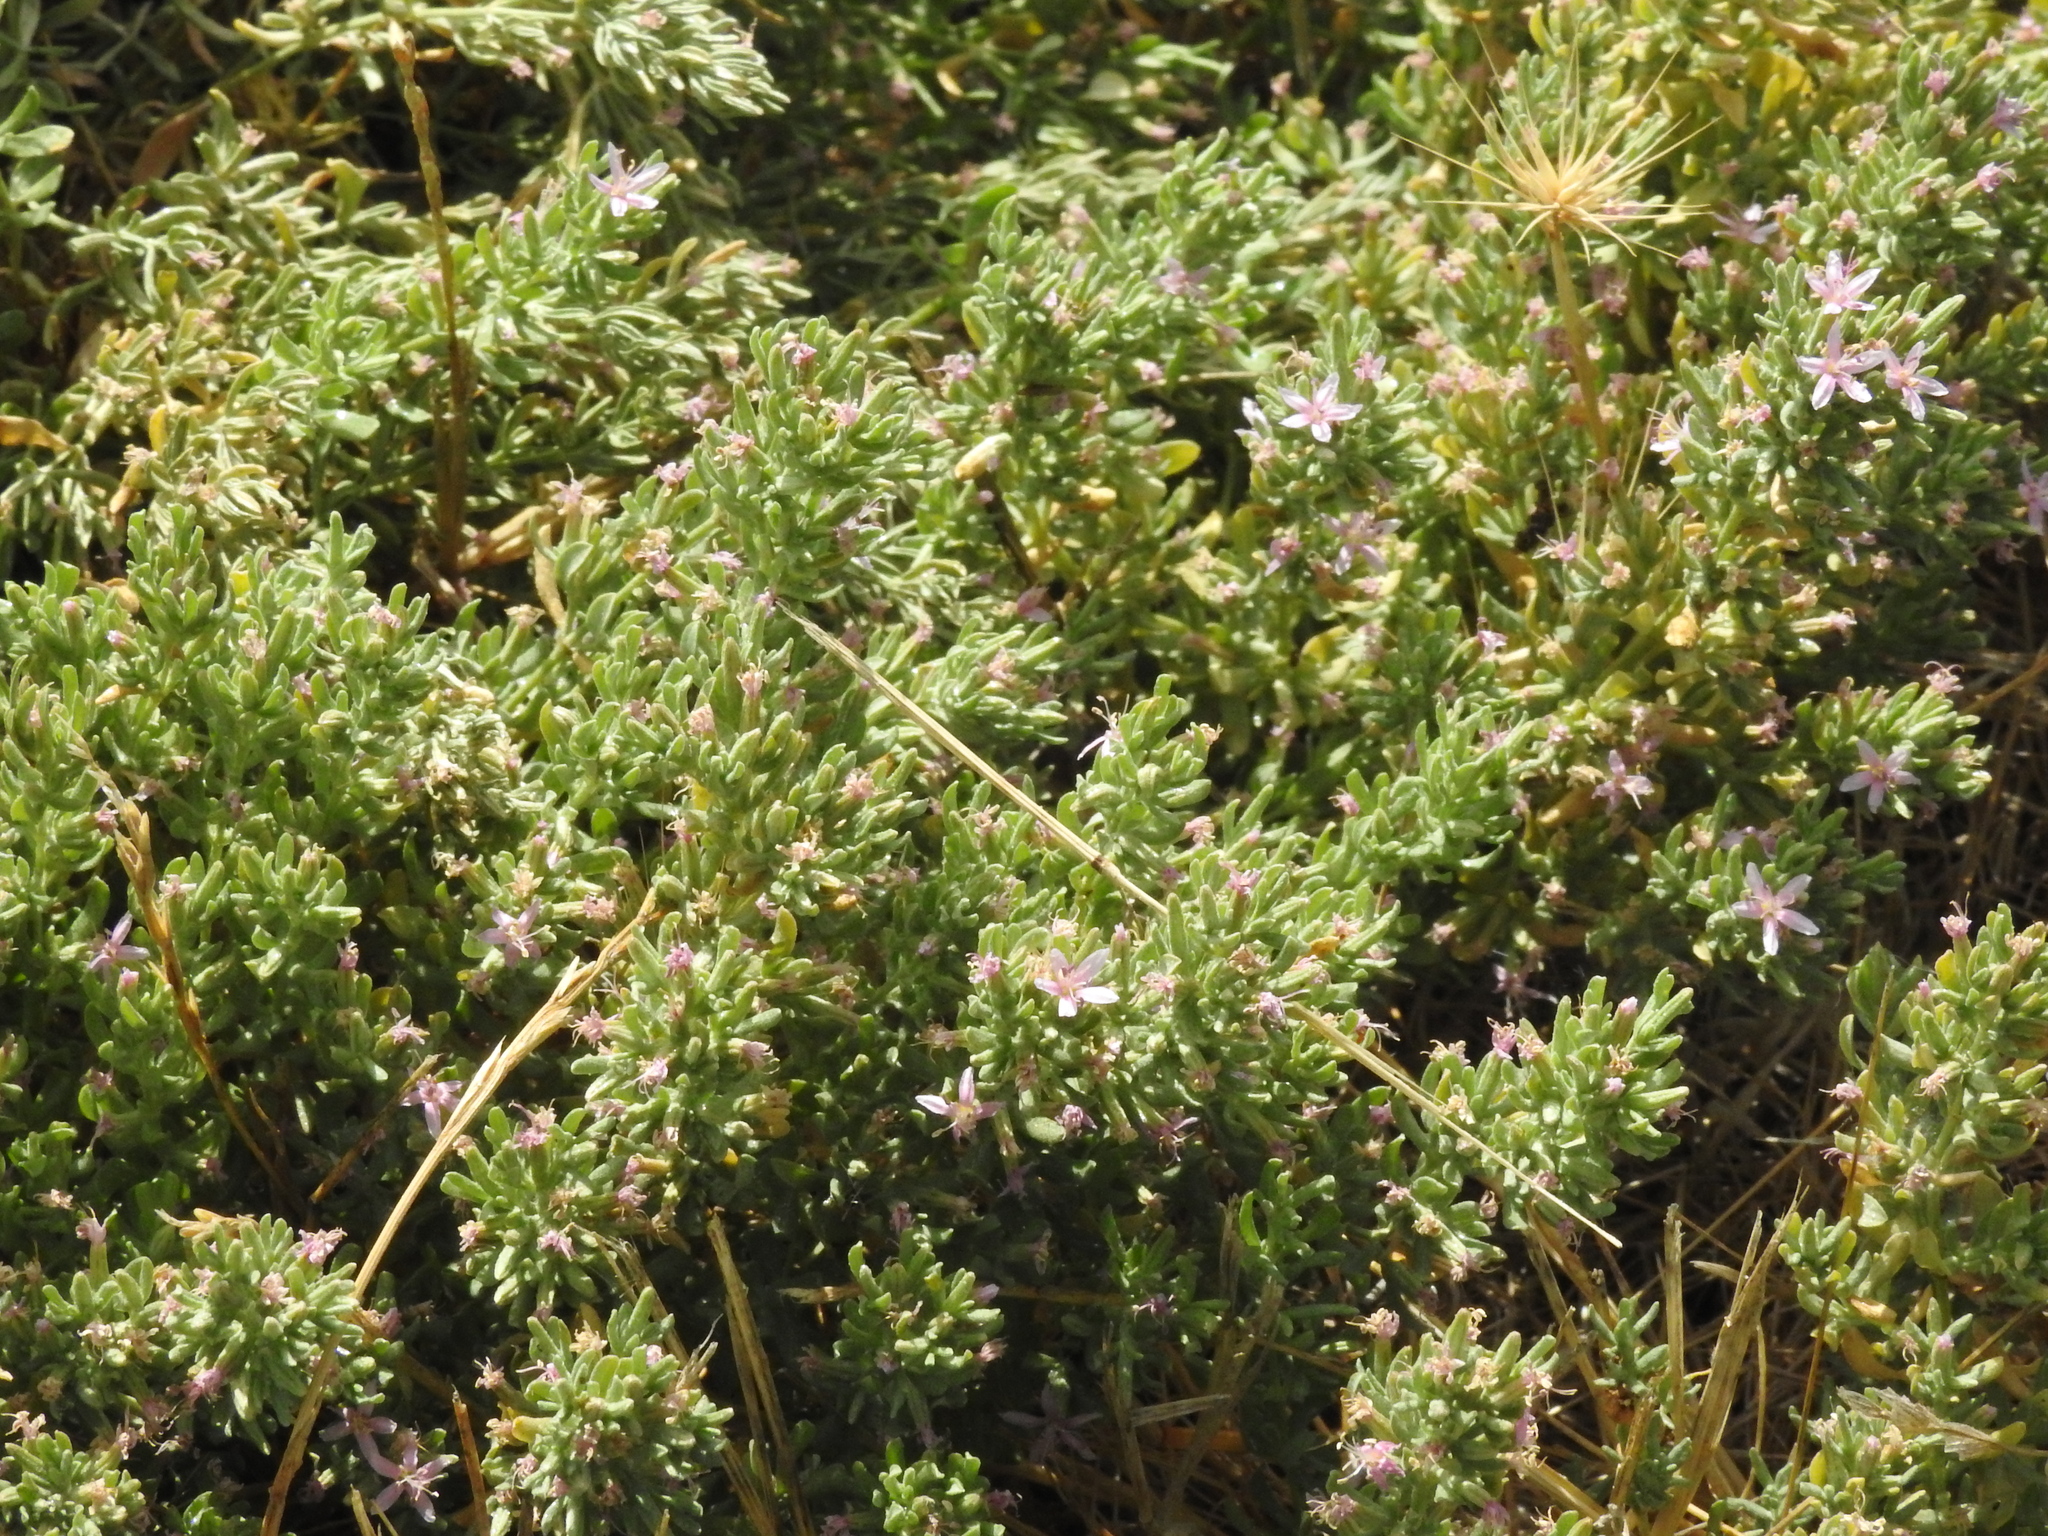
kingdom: Plantae
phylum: Tracheophyta
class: Magnoliopsida
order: Caryophyllales
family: Frankeniaceae
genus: Frankenia
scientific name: Frankenia salina
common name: Alkali seaheath
